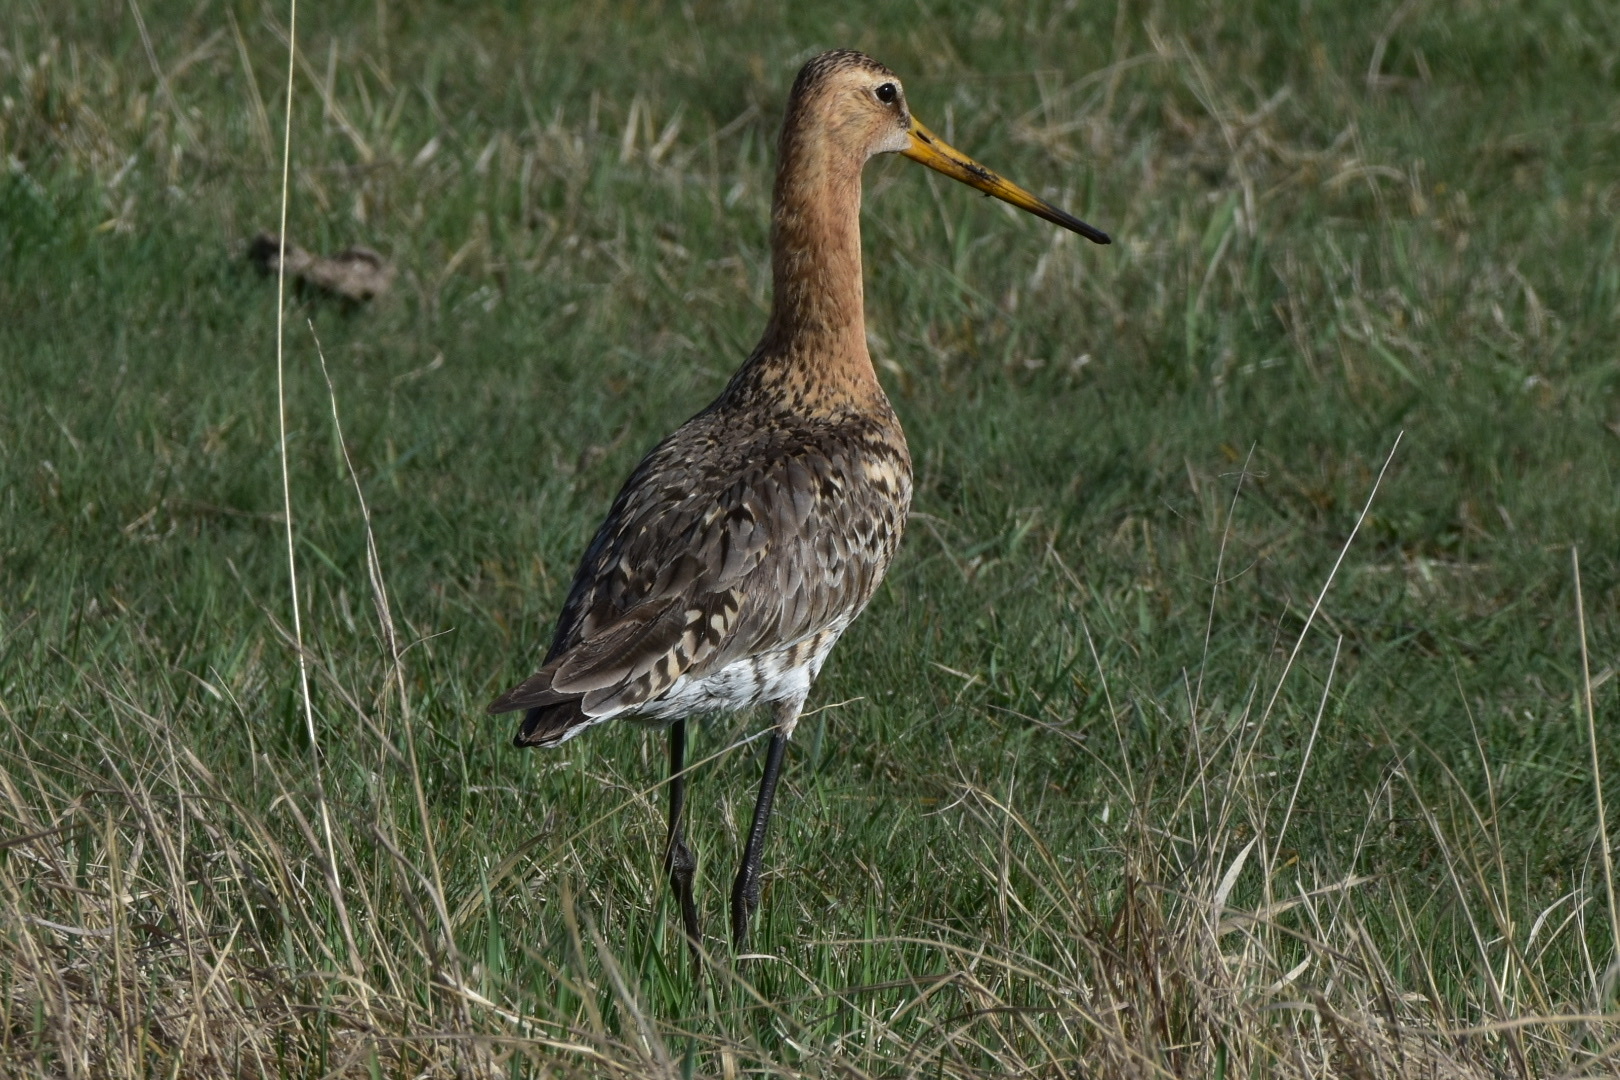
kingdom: Animalia
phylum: Chordata
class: Aves
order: Charadriiformes
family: Scolopacidae
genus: Limosa
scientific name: Limosa limosa
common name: Black-tailed godwit
